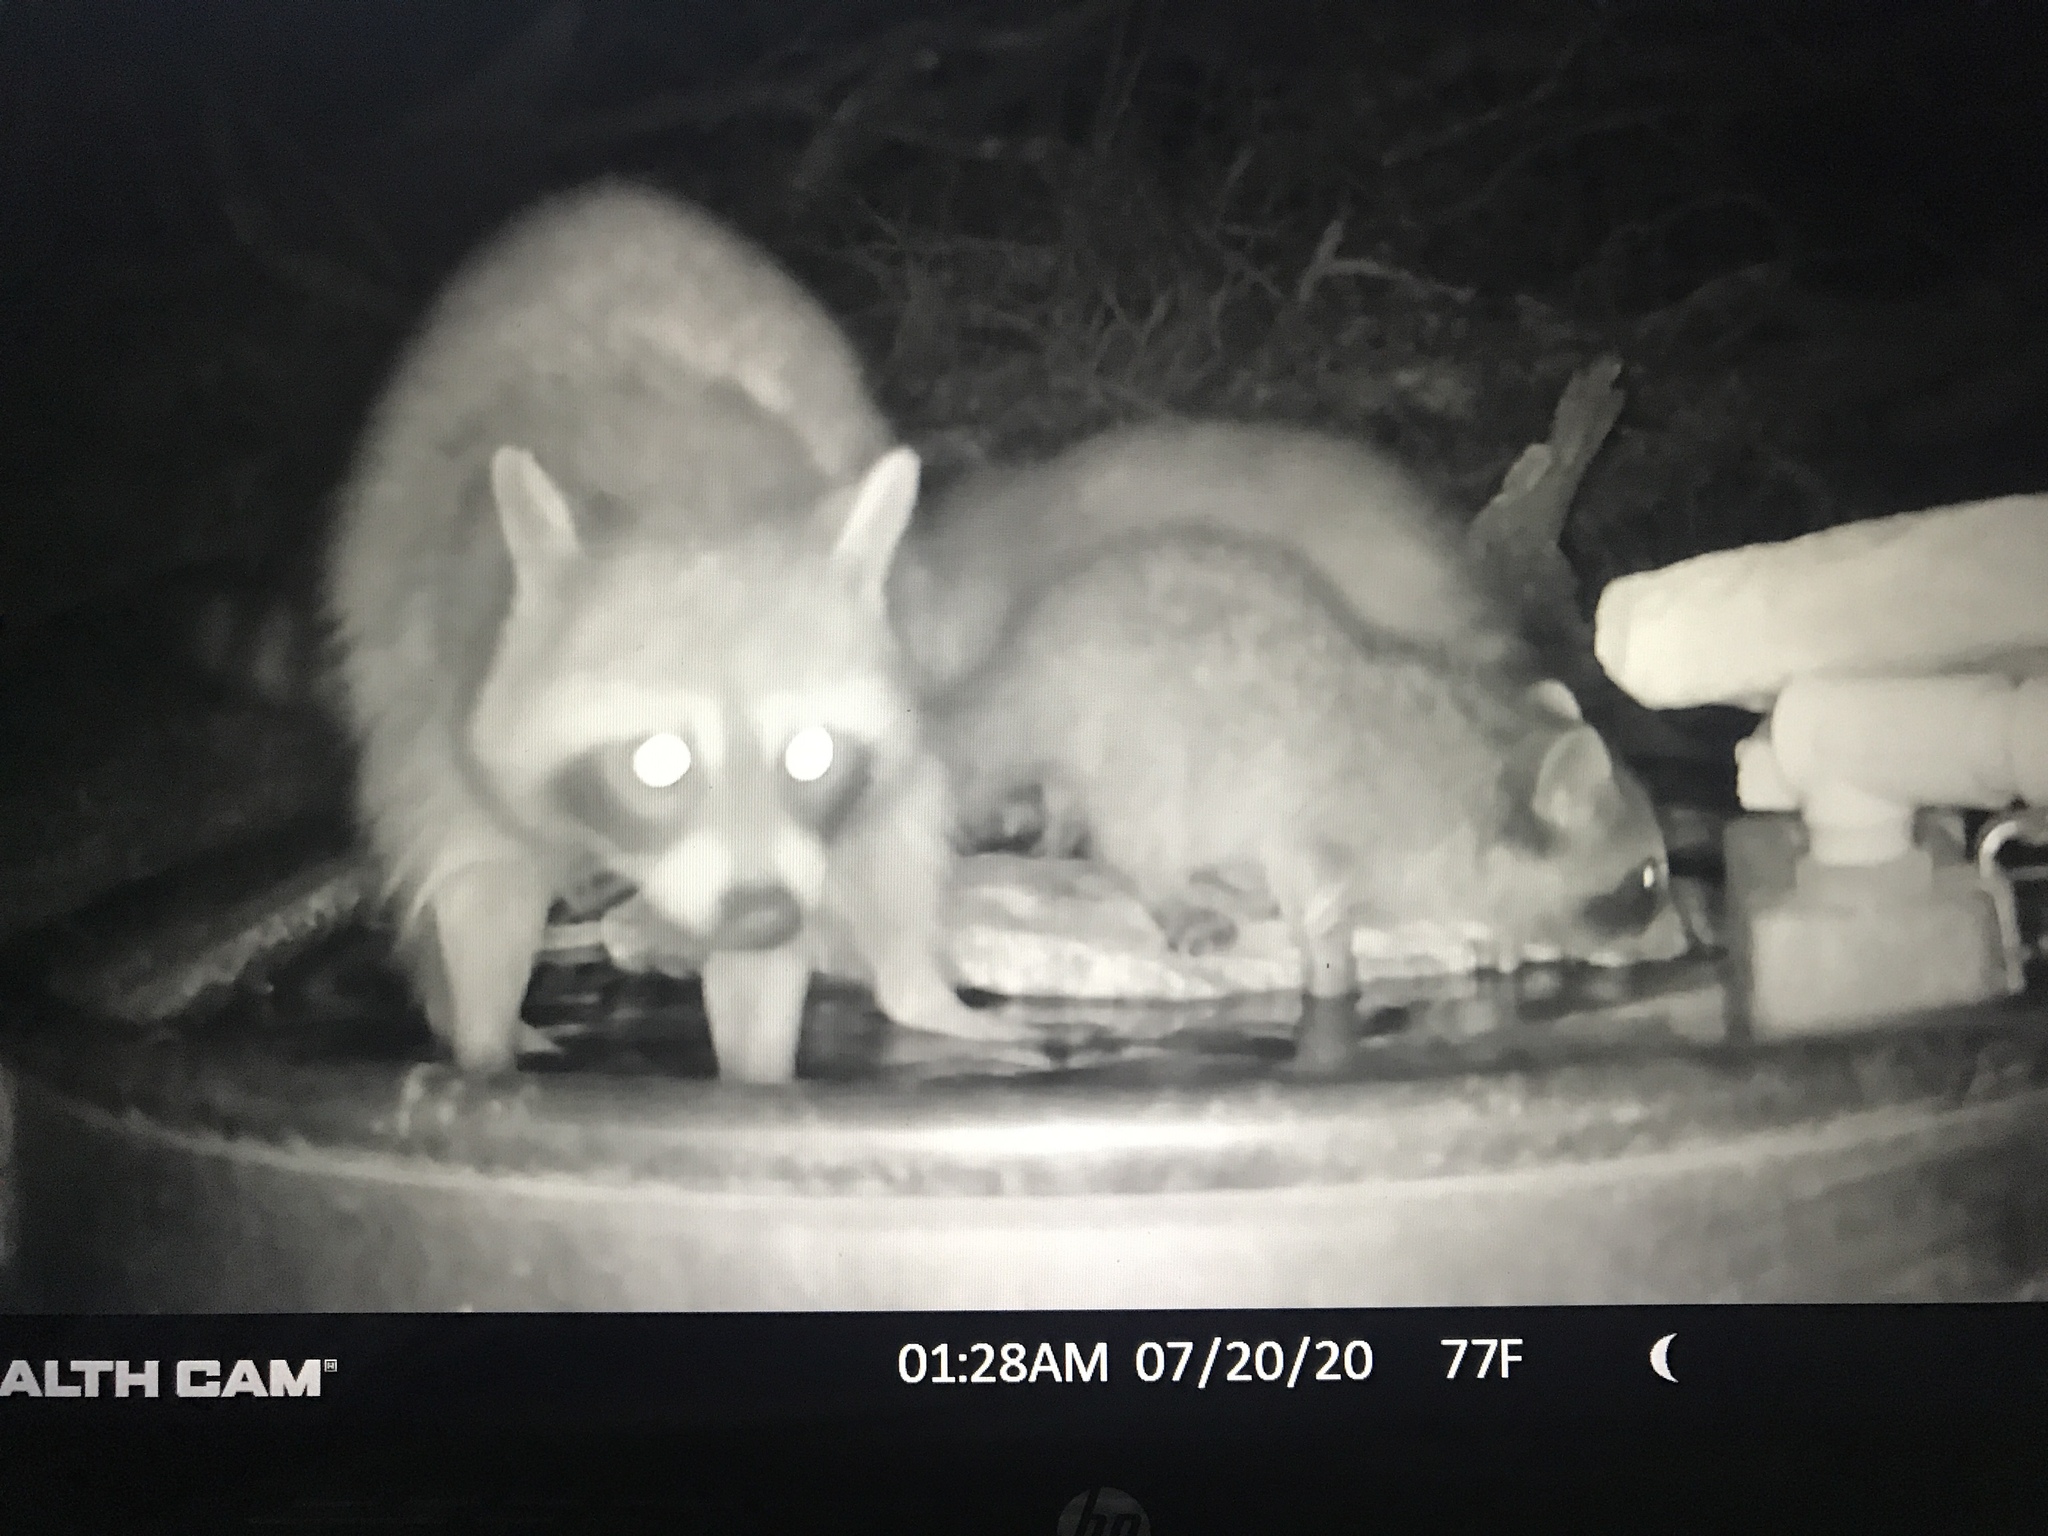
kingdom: Animalia
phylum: Chordata
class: Mammalia
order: Carnivora
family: Procyonidae
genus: Procyon
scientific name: Procyon lotor
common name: Raccoon
